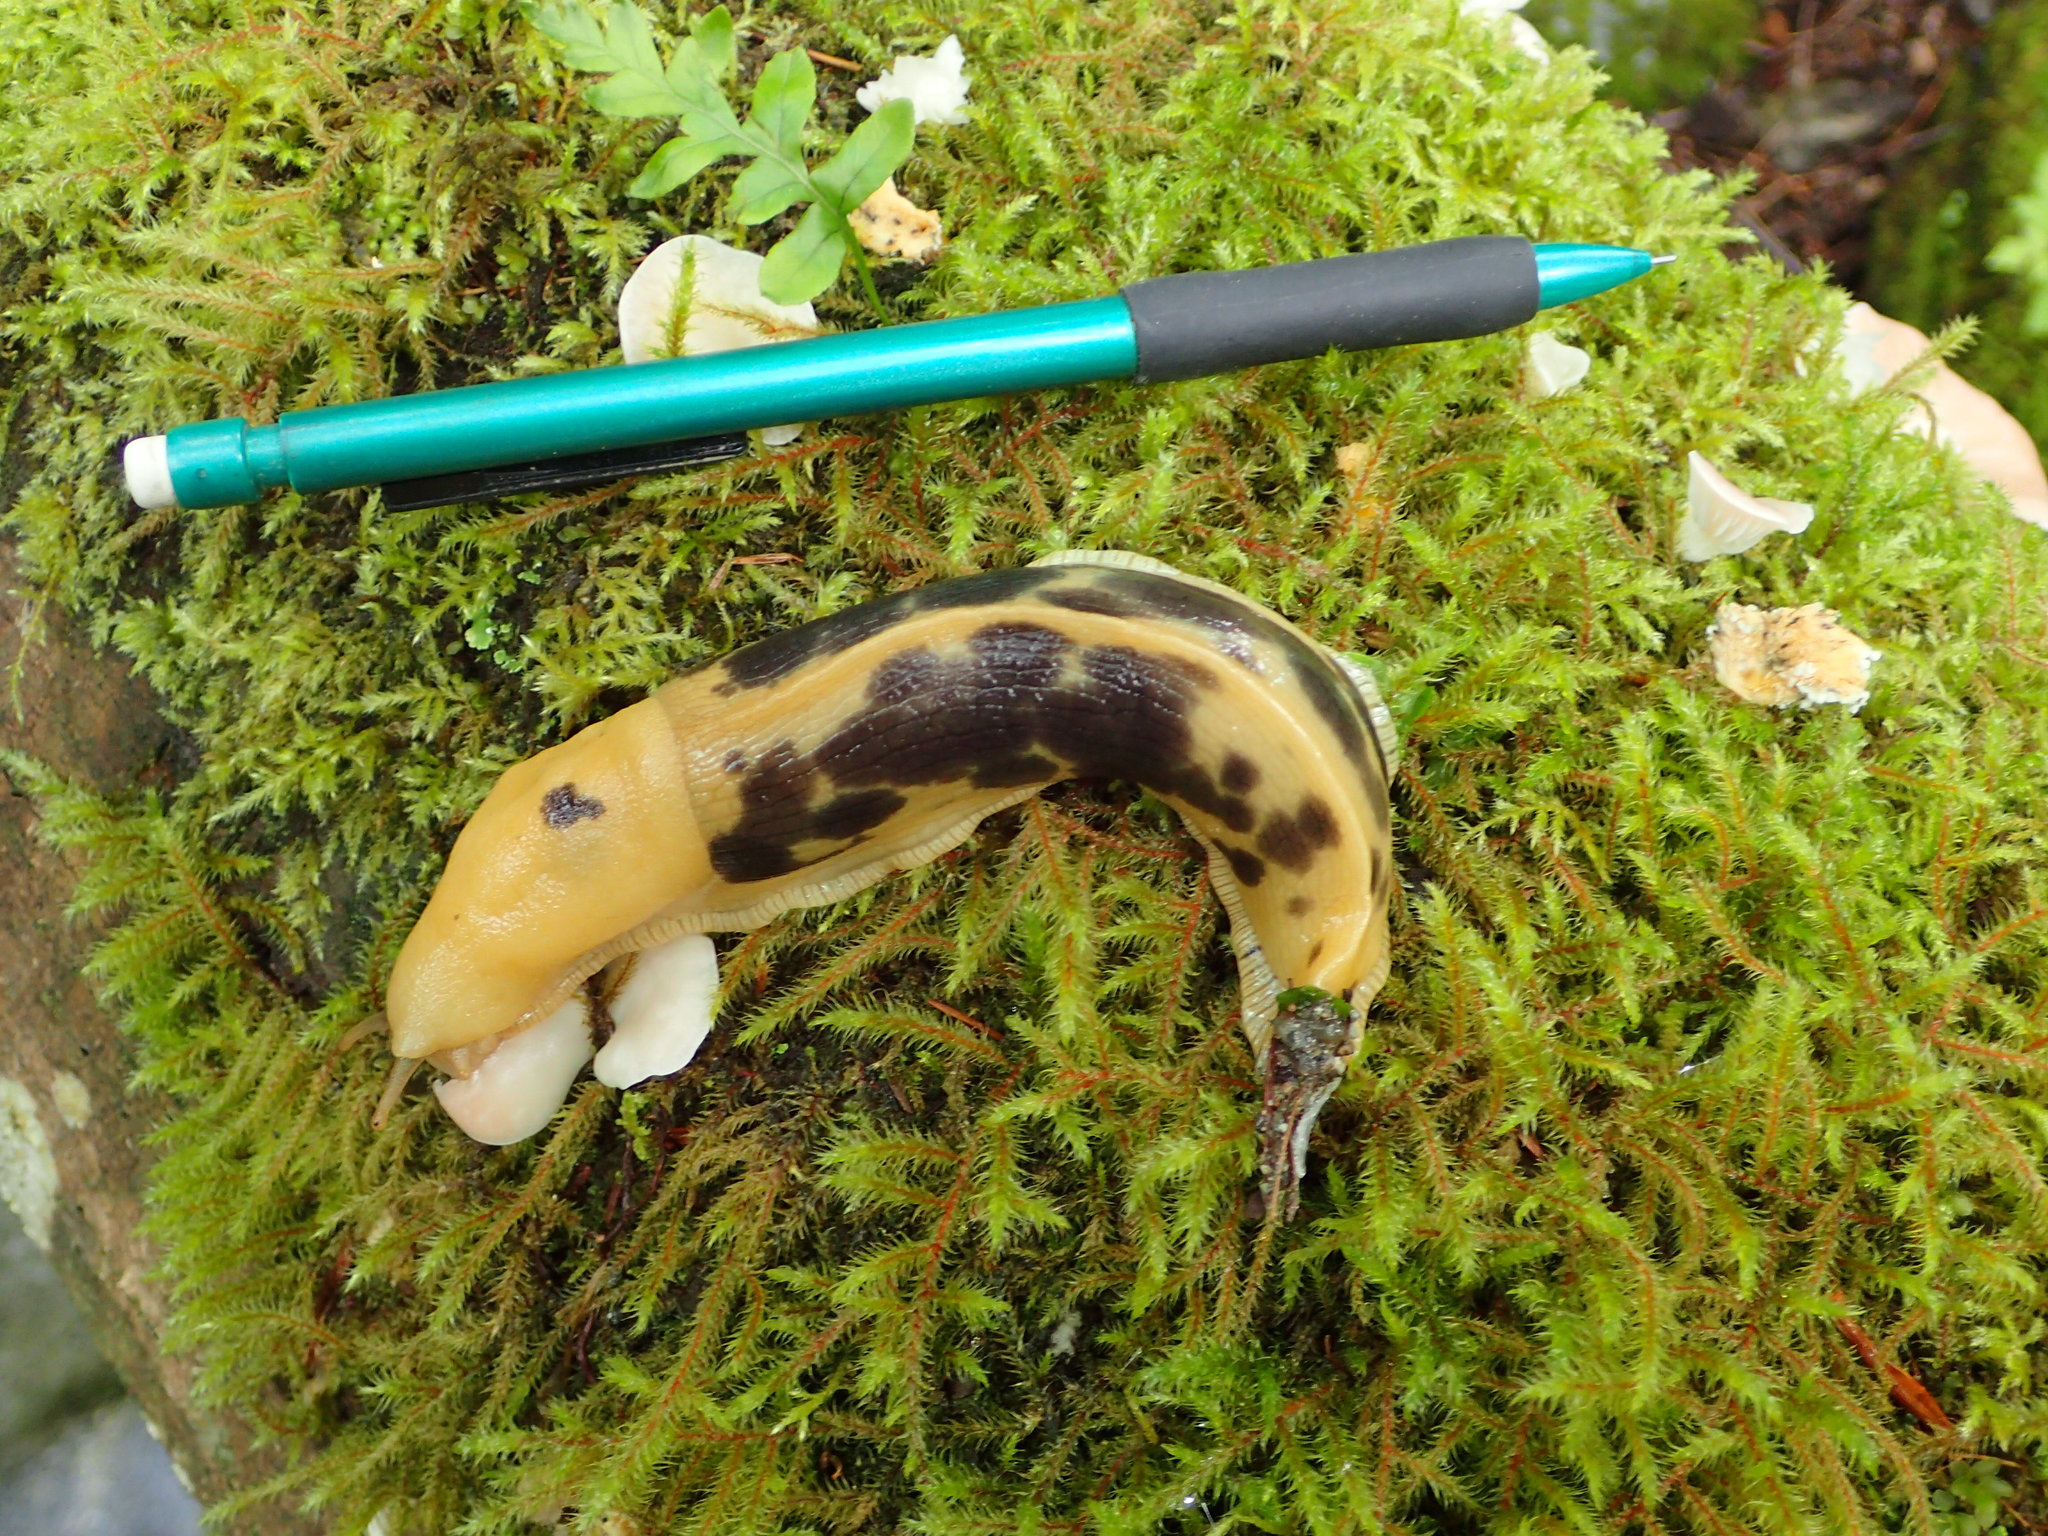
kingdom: Animalia
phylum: Mollusca
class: Gastropoda
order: Stylommatophora
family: Ariolimacidae
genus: Ariolimax
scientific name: Ariolimax columbianus
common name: Pacific banana slug
